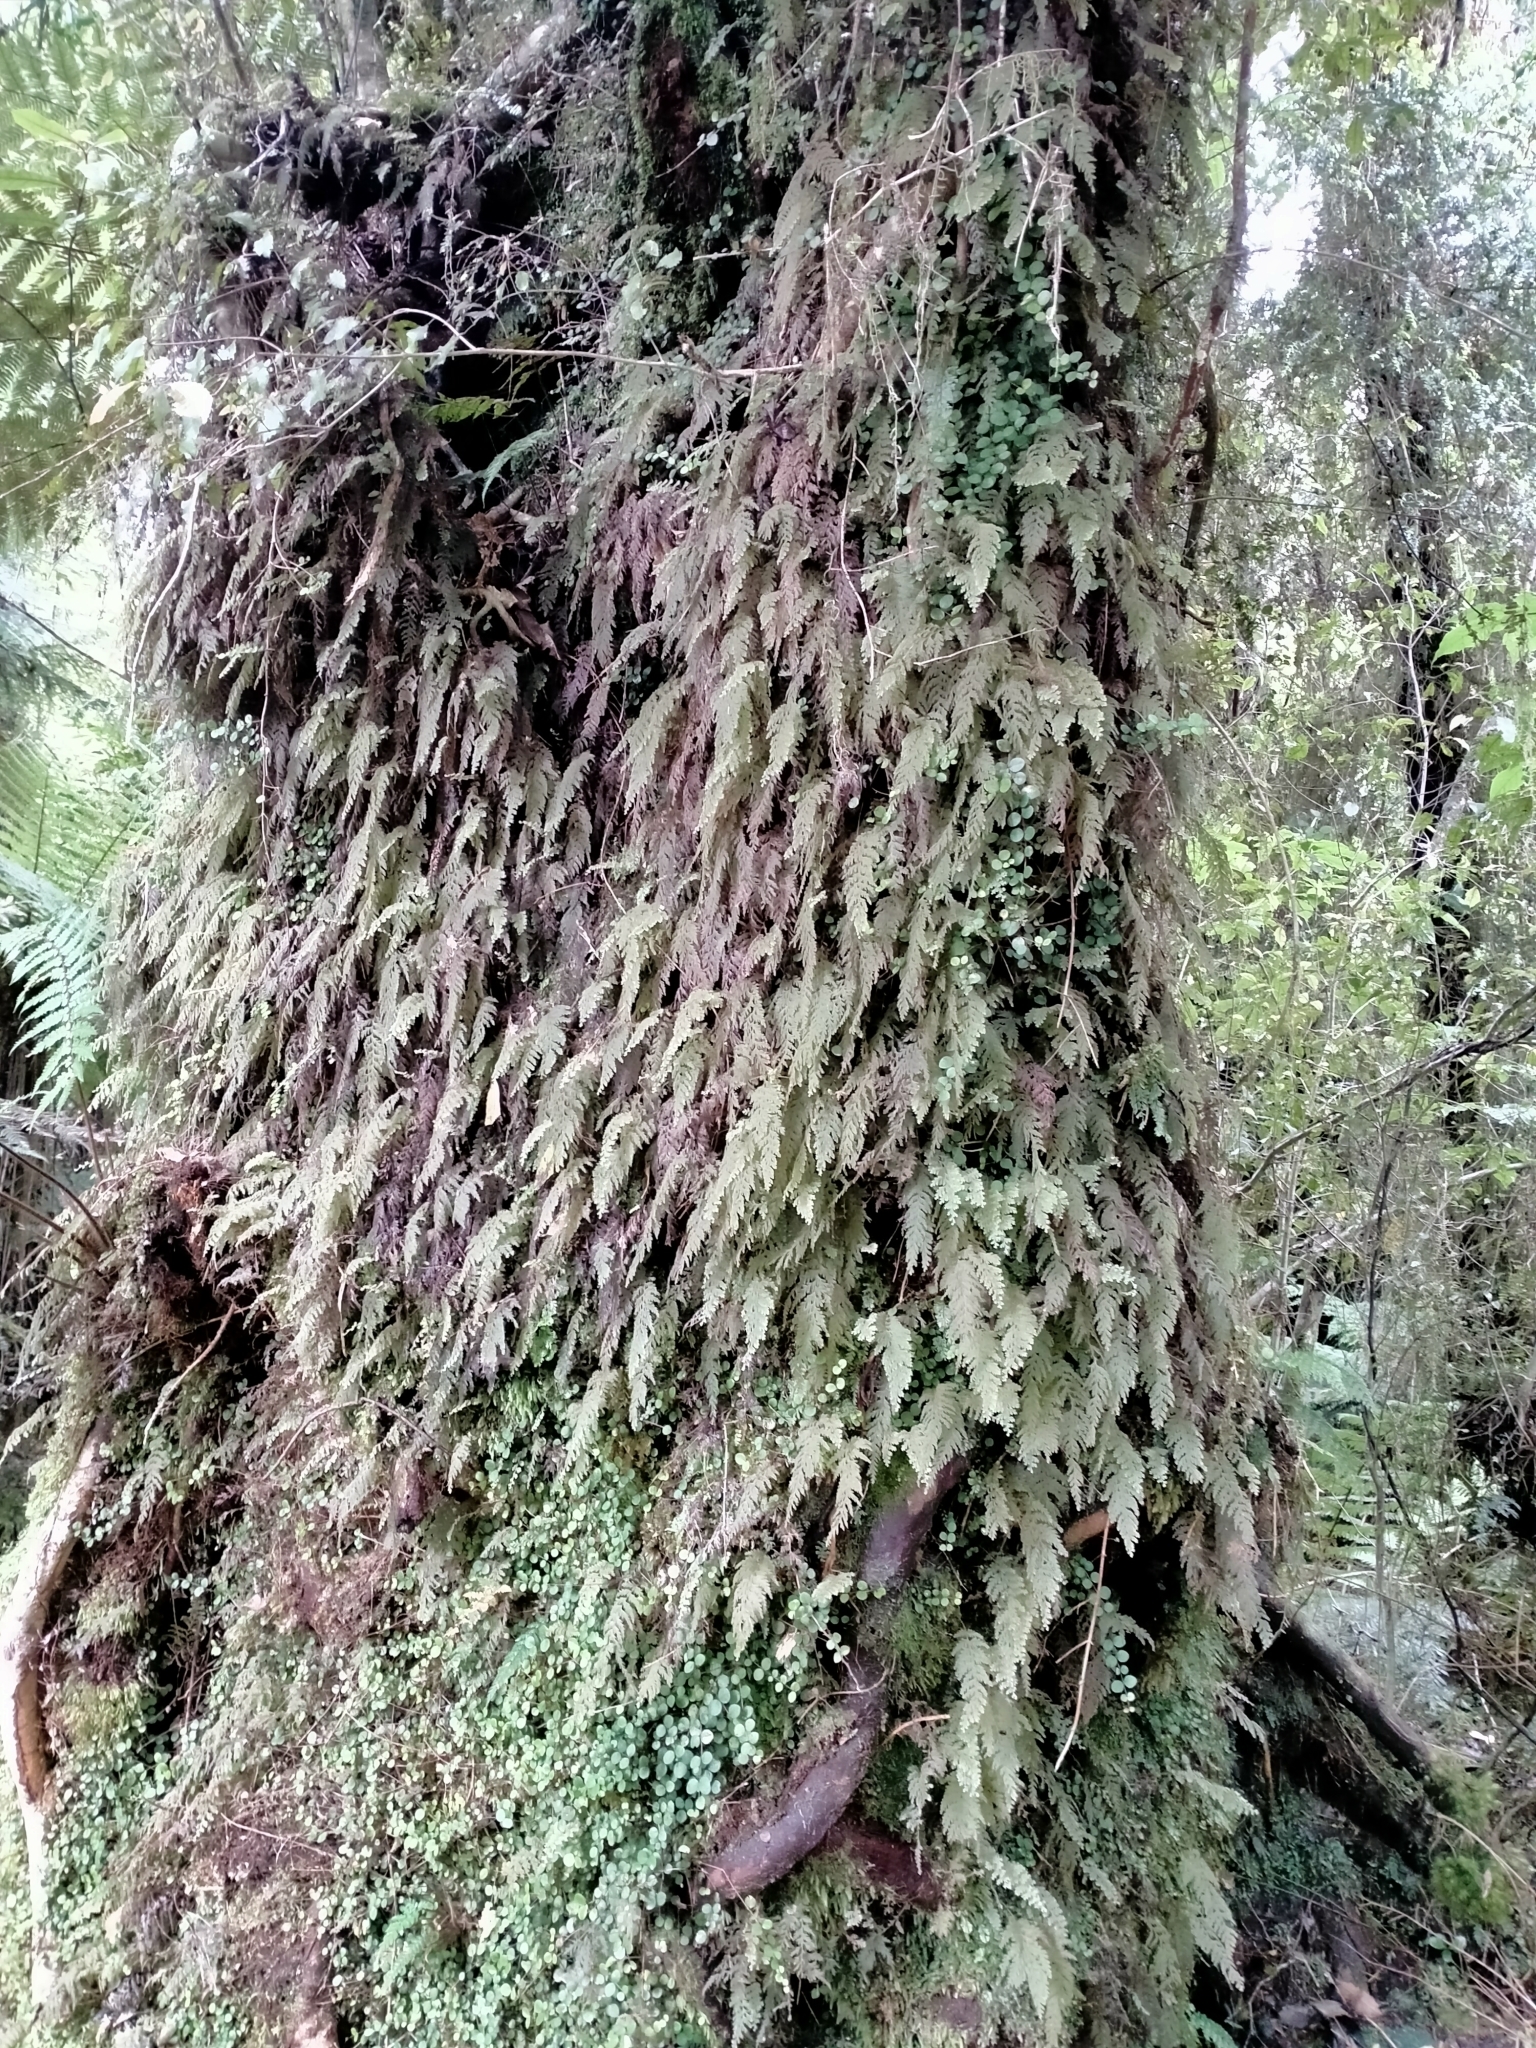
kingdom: Plantae
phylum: Tracheophyta
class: Polypodiopsida
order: Hymenophyllales
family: Hymenophyllaceae
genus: Hymenophyllum
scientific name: Hymenophyllum frankliniae
